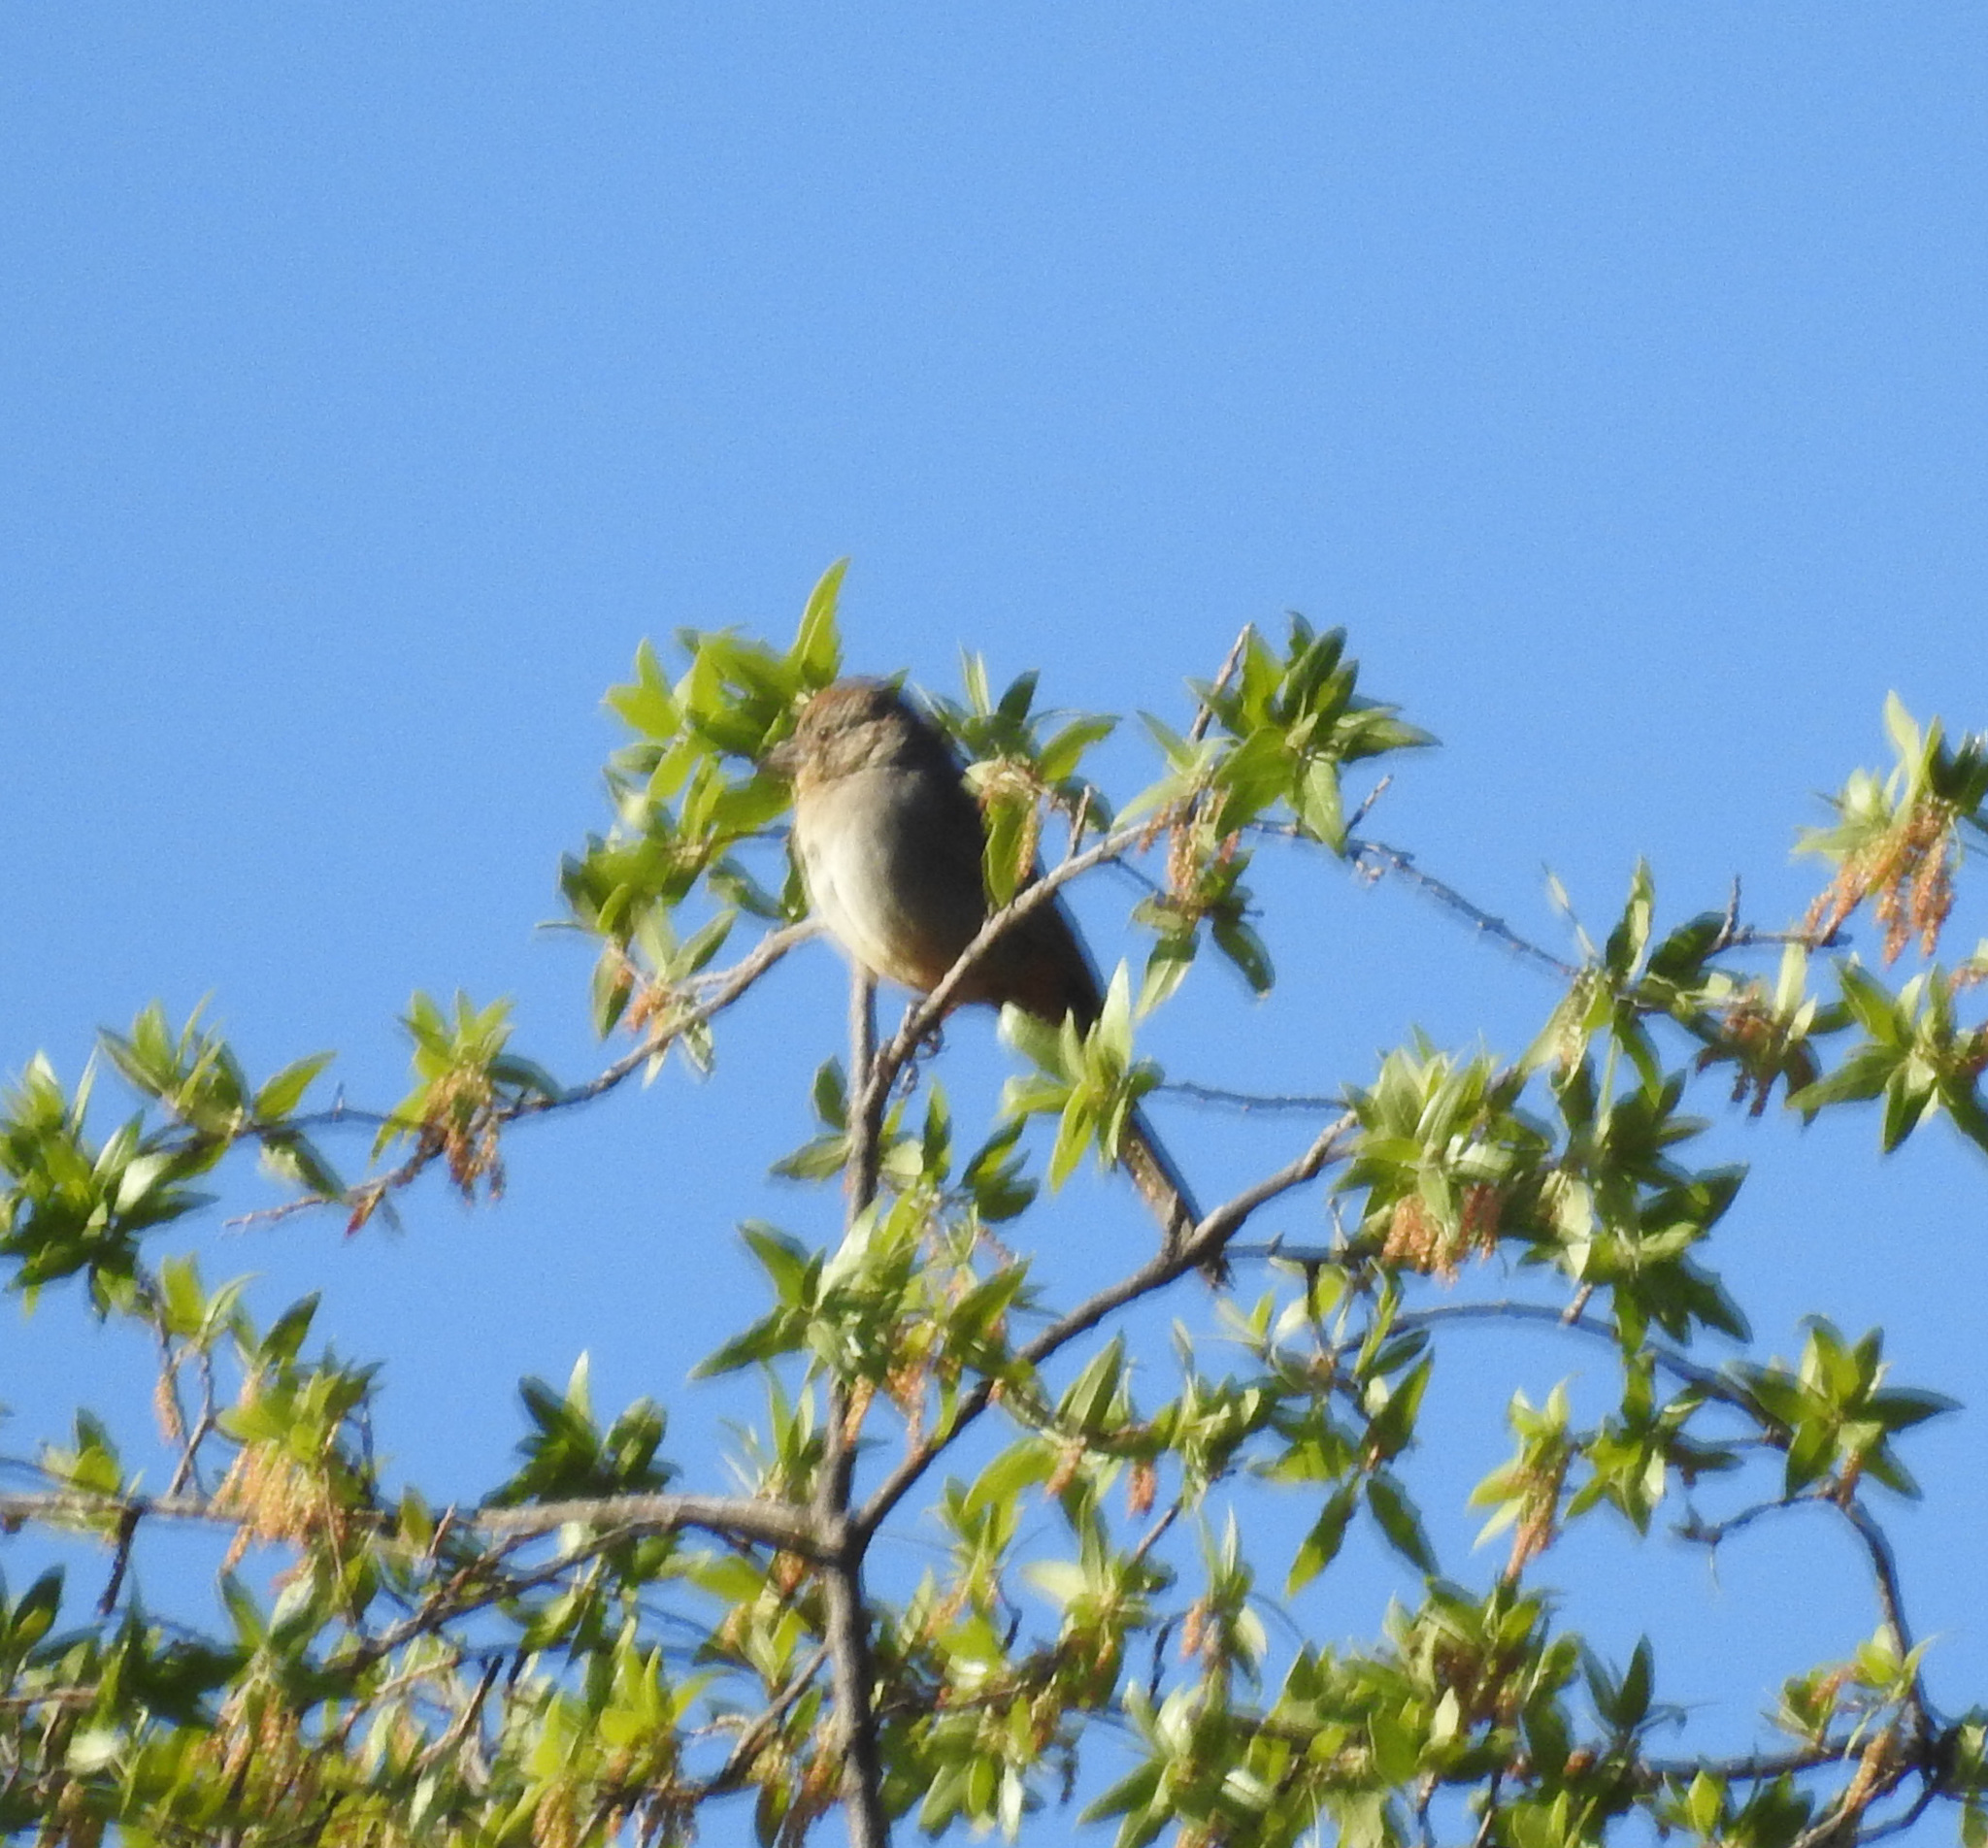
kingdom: Animalia
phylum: Chordata
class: Aves
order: Passeriformes
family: Passerellidae
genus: Melozone
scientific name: Melozone fusca
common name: Canyon towhee
